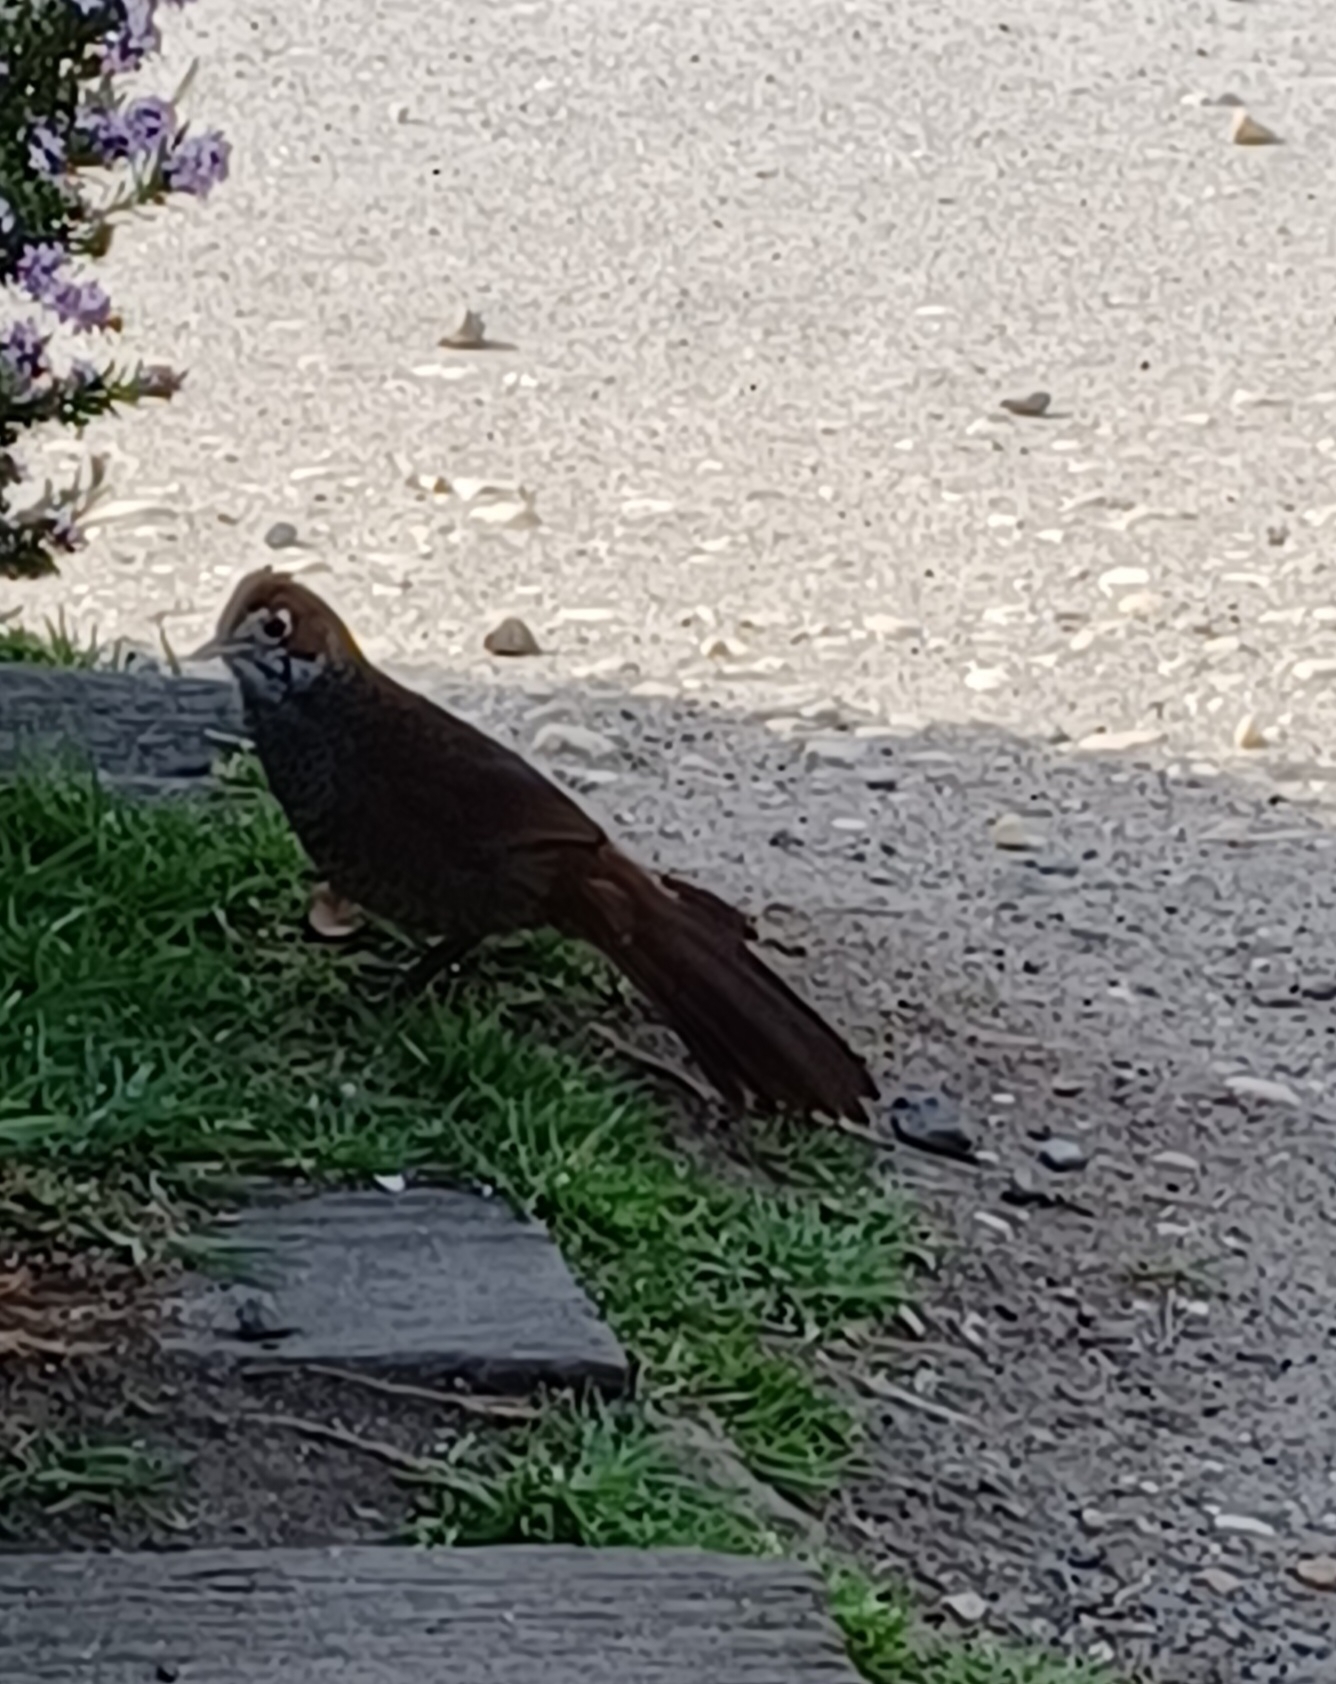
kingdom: Animalia
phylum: Chordata
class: Aves
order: Passeriformes
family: Dasyornithidae
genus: Dasyornis
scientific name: Dasyornis broadbenti
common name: Rufous bristlebird
